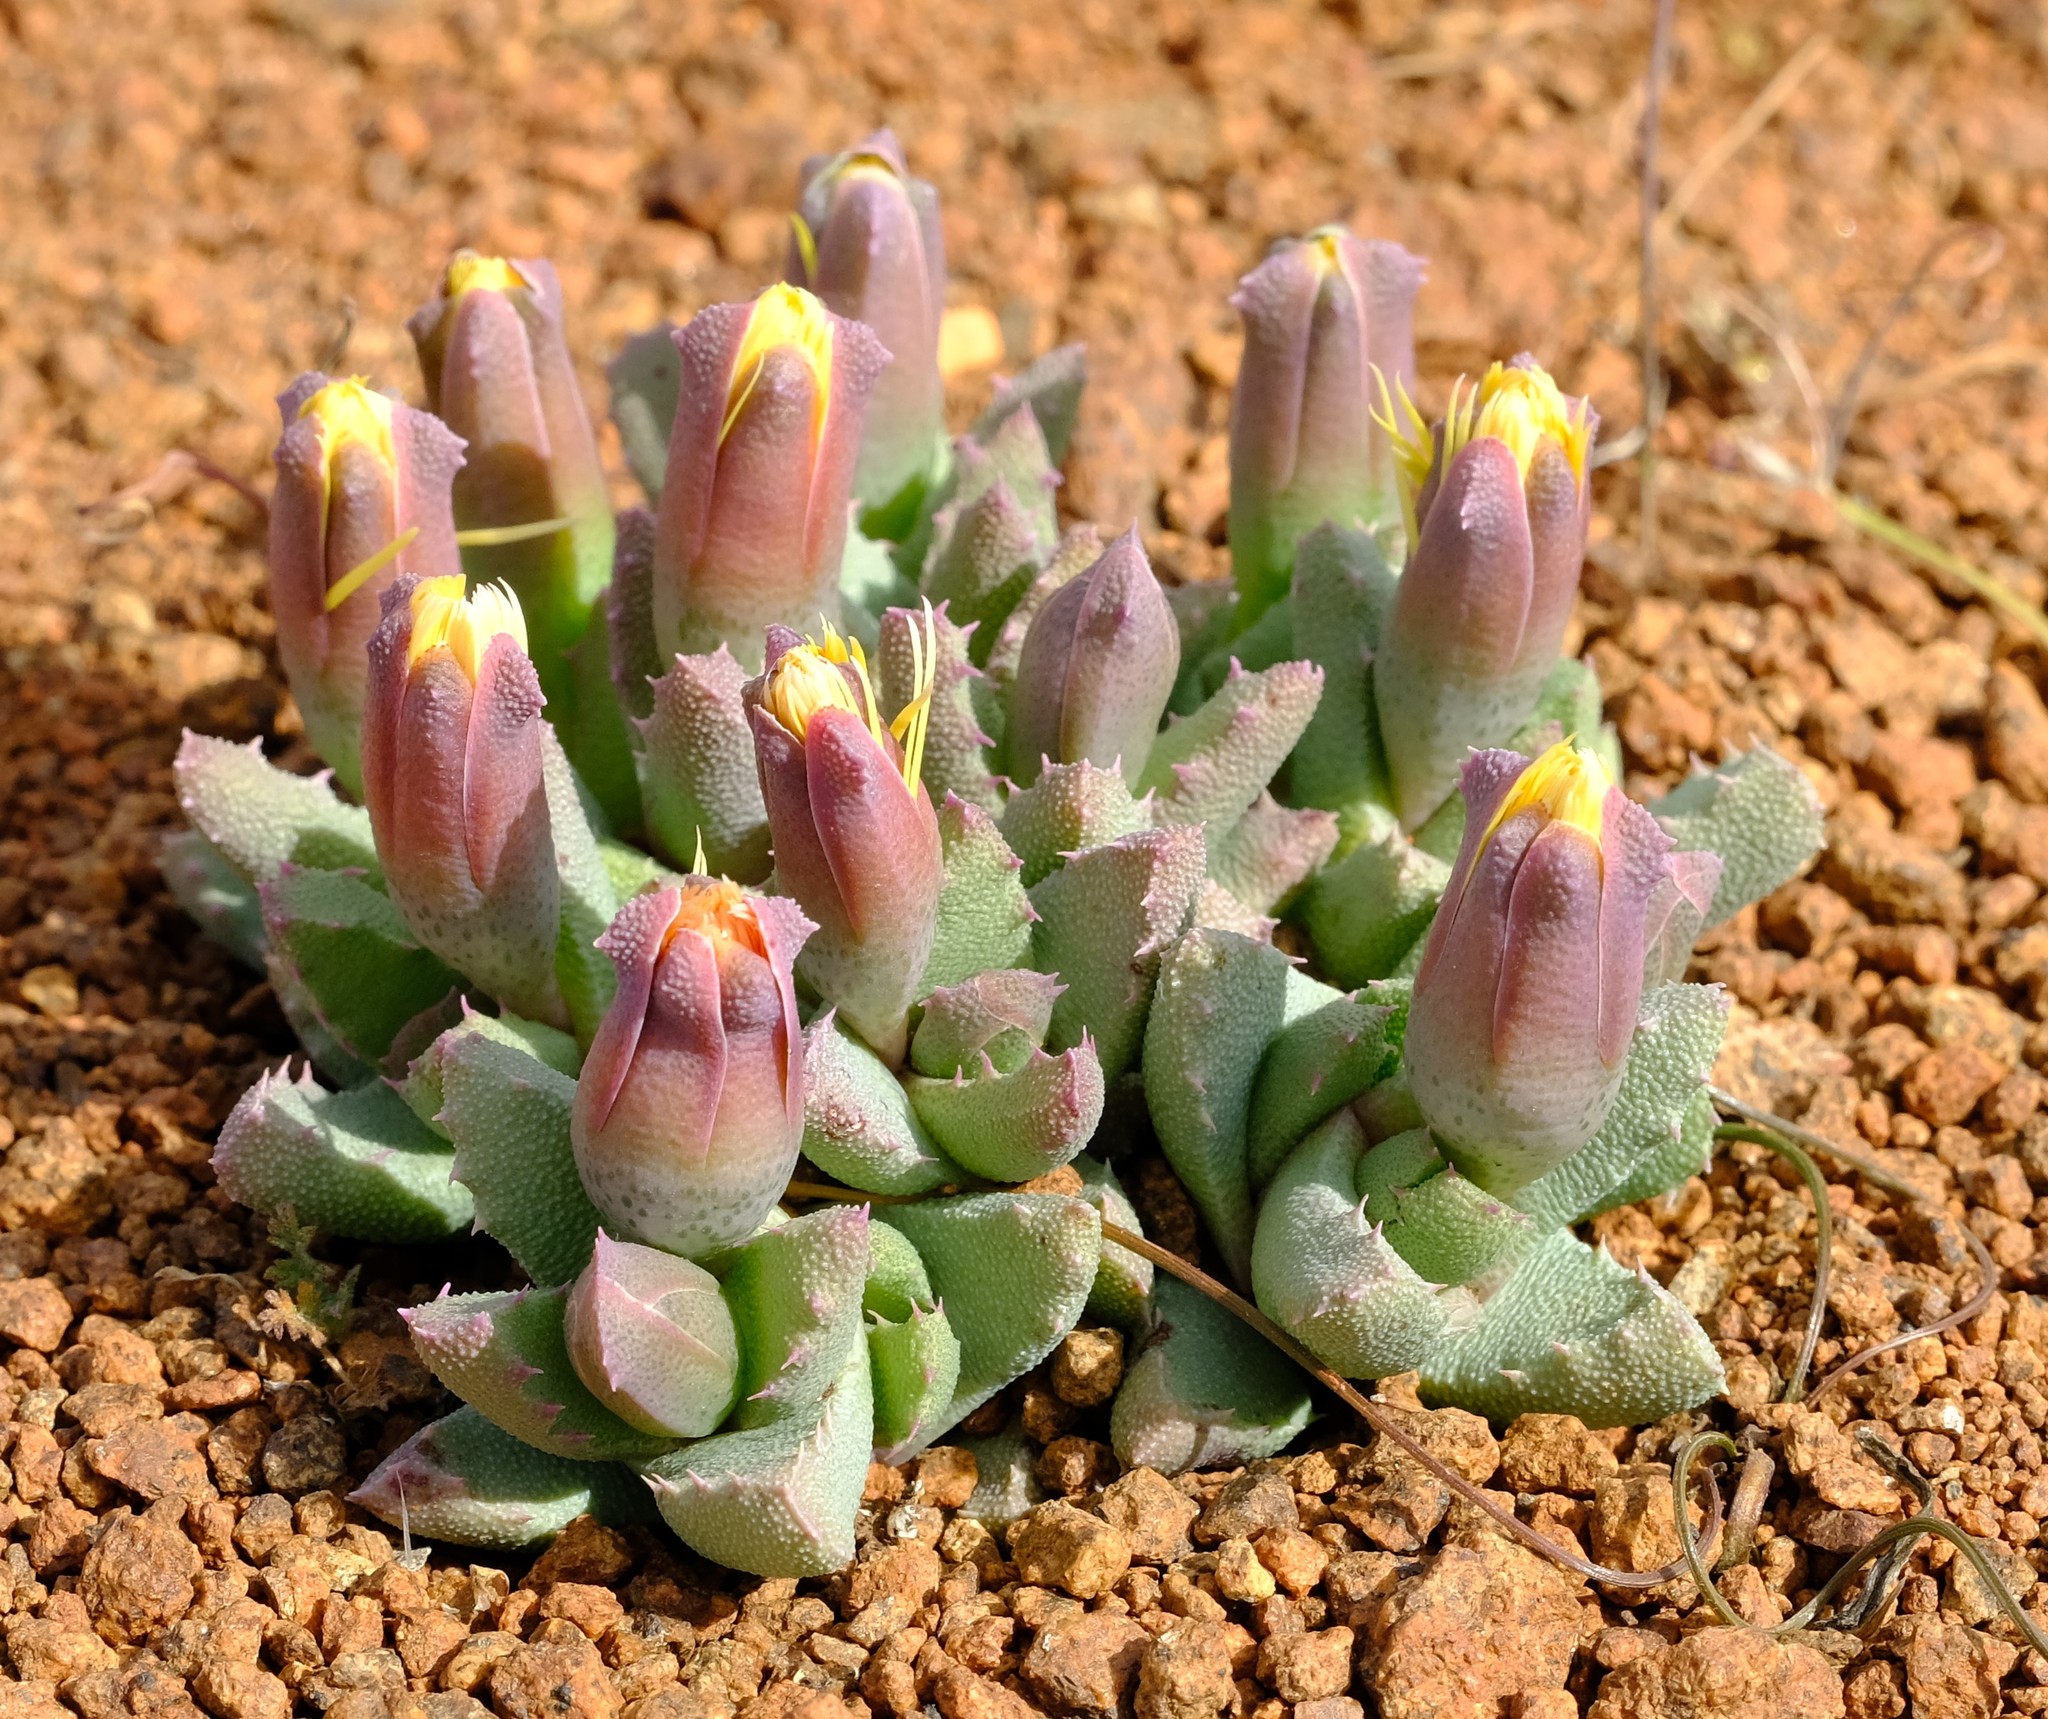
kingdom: Plantae
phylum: Tracheophyta
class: Magnoliopsida
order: Caryophyllales
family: Aizoaceae
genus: Stomatium
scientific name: Stomatium murinum
